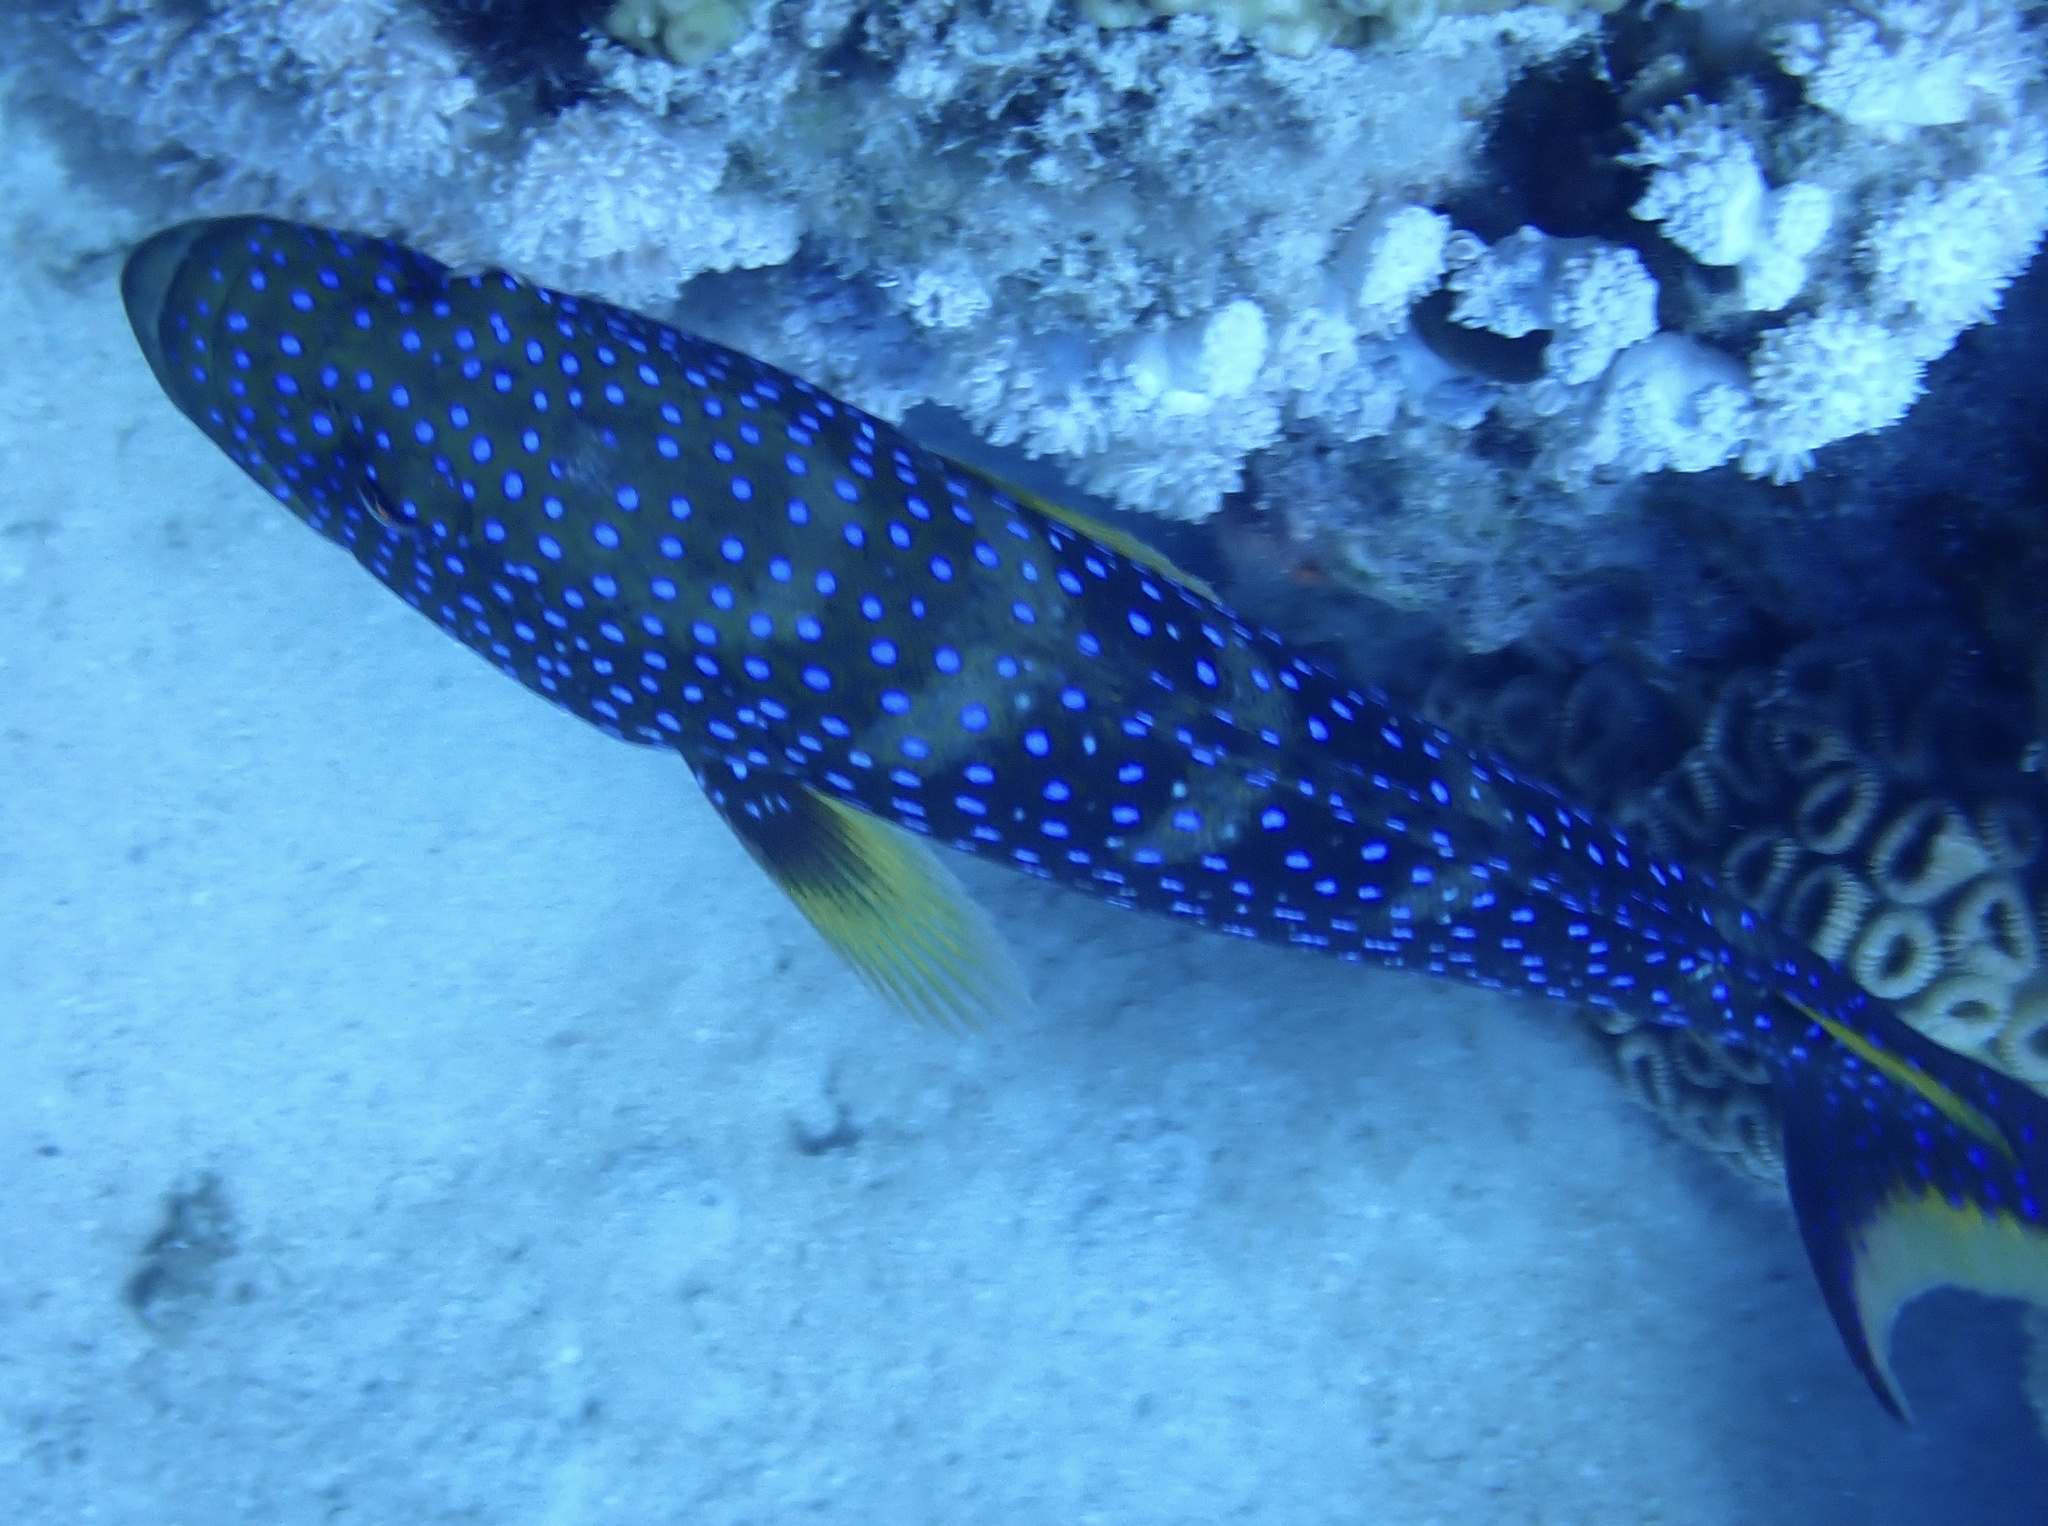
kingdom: Animalia
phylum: Chordata
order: Perciformes
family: Serranidae
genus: Variola
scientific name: Variola louti
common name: Yellow-edged lyretail
